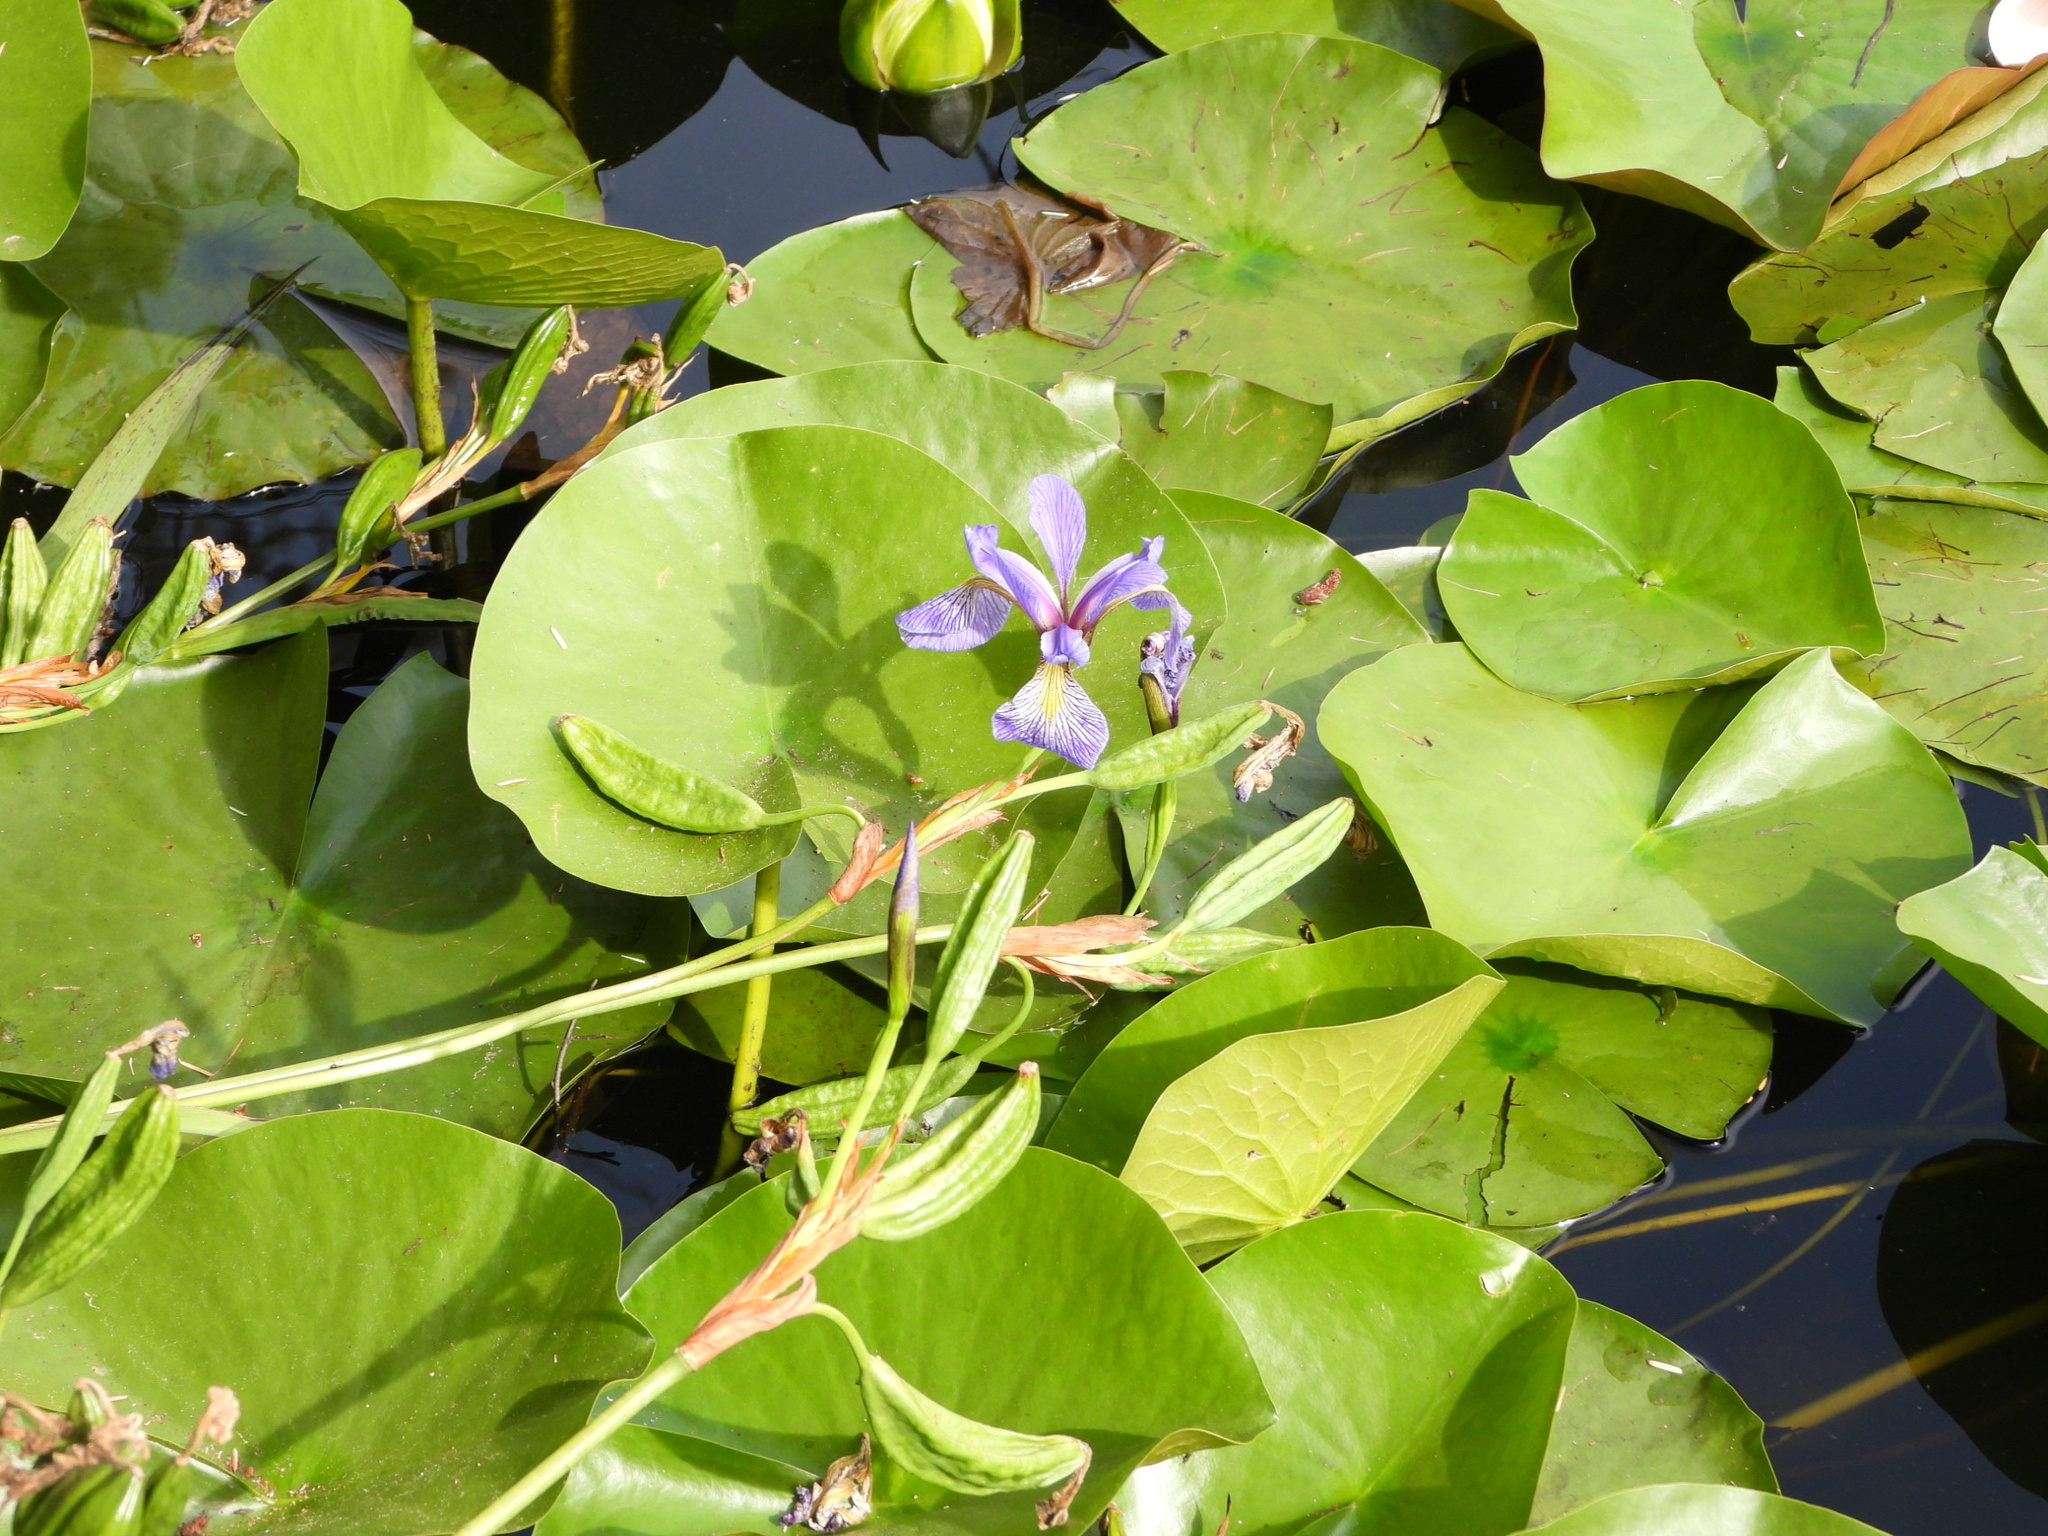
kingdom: Plantae
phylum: Tracheophyta
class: Liliopsida
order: Asparagales
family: Iridaceae
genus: Iris
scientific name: Iris versicolor
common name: Purple iris
